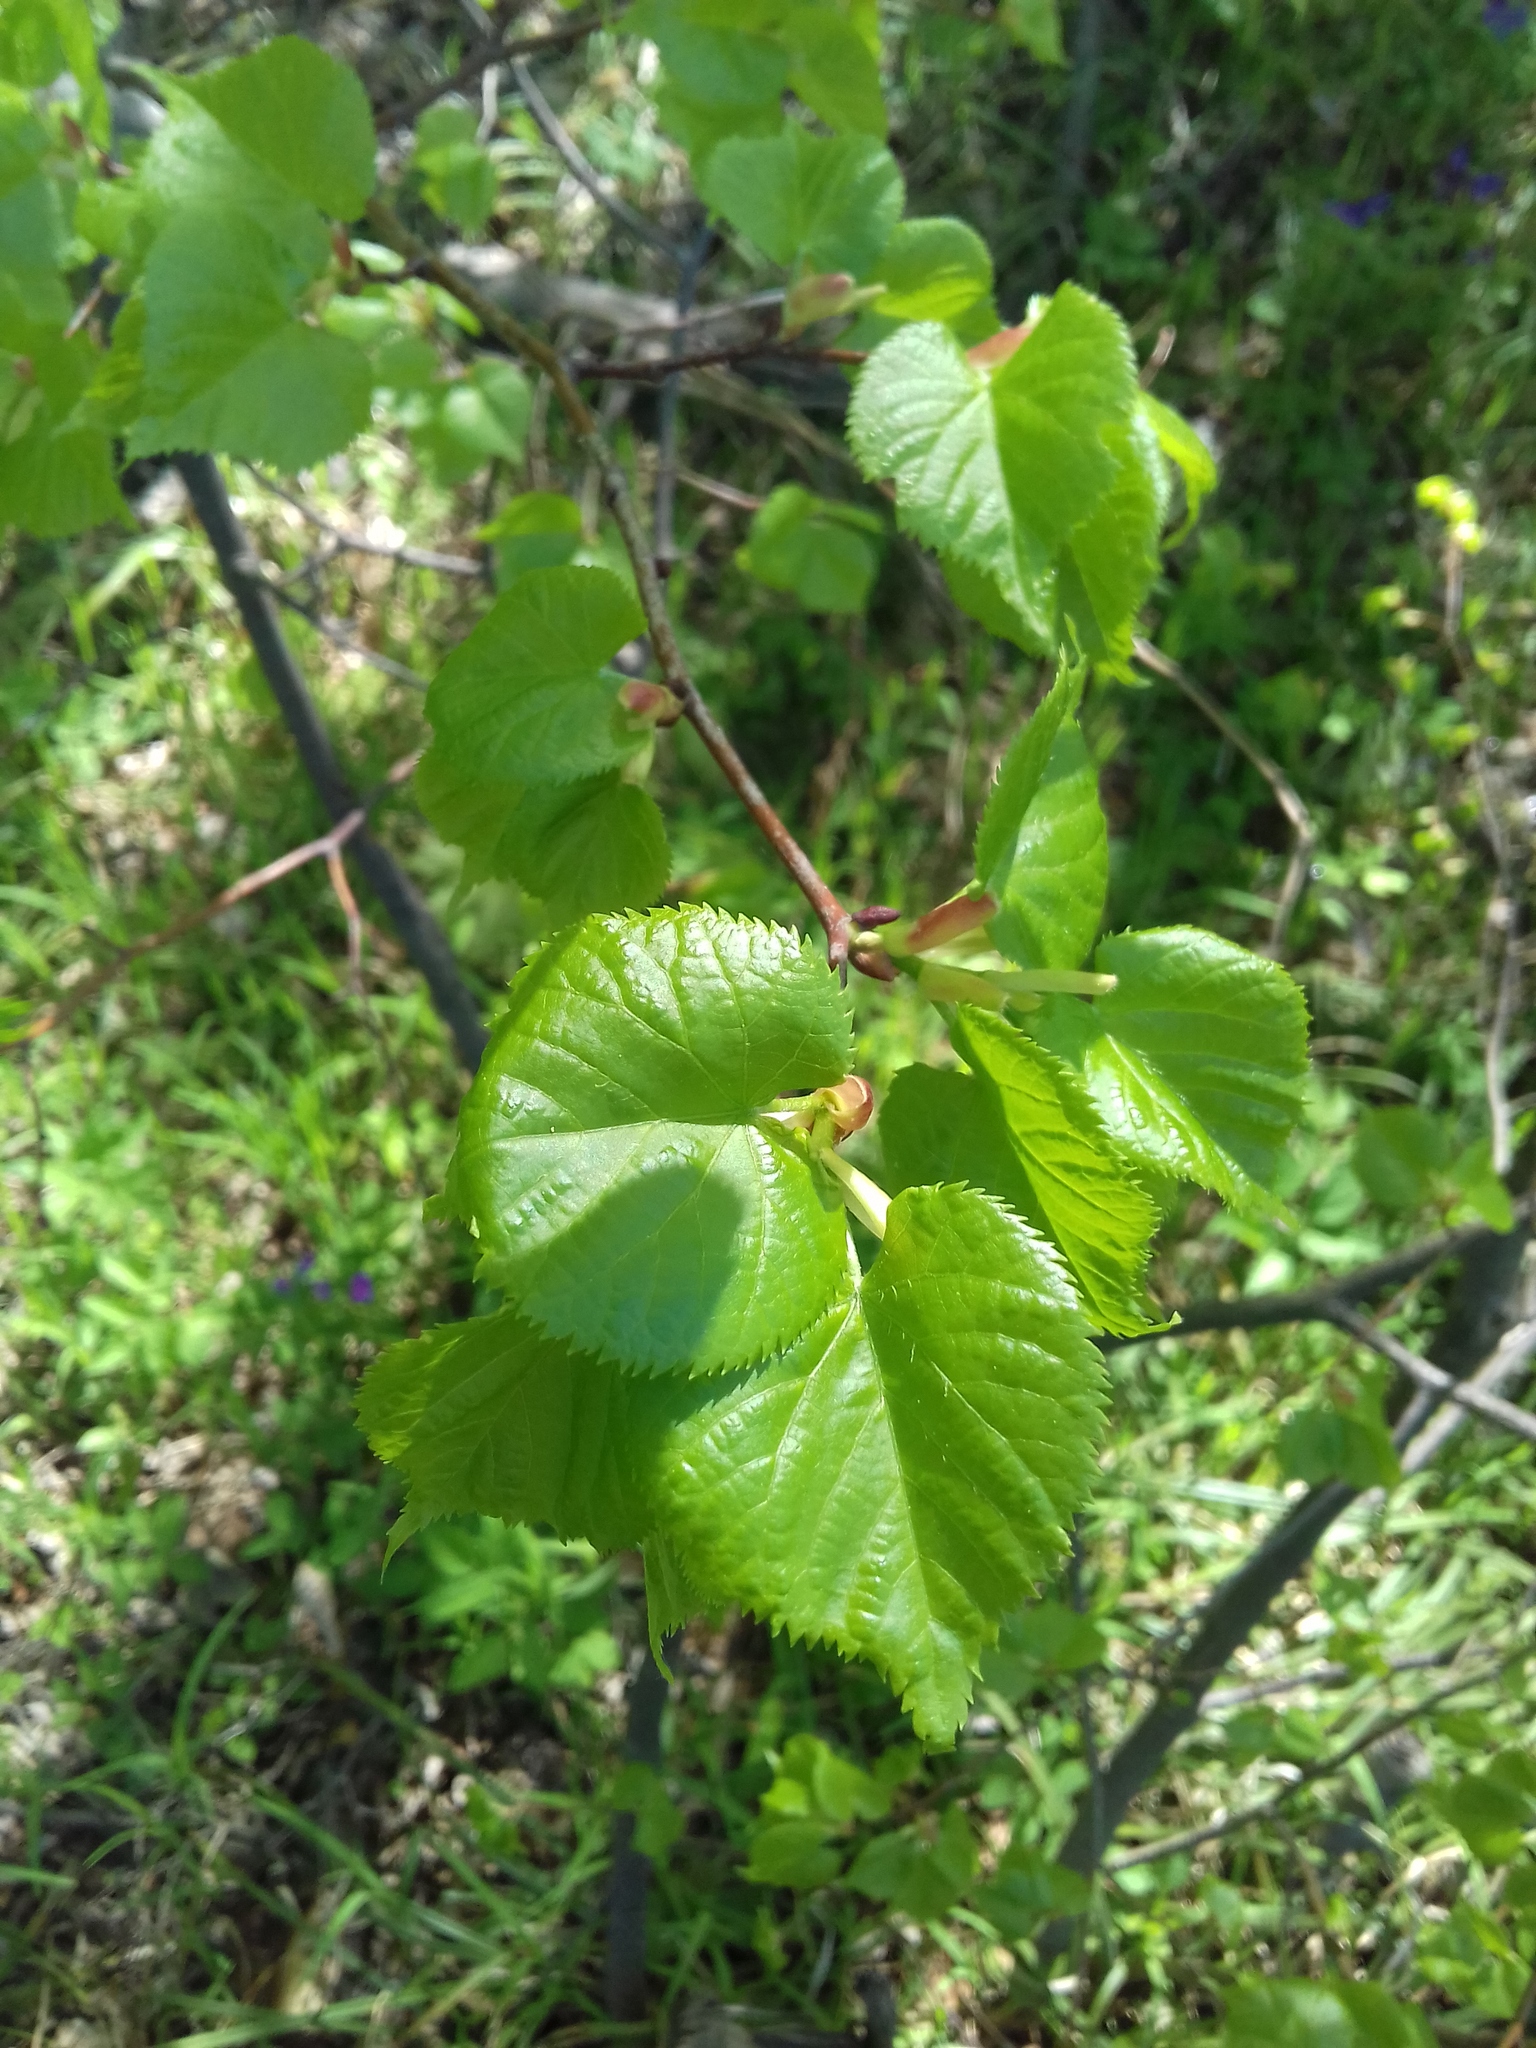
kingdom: Plantae
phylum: Tracheophyta
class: Magnoliopsida
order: Malvales
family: Malvaceae
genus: Tilia
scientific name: Tilia cordata
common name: Small-leaved lime
